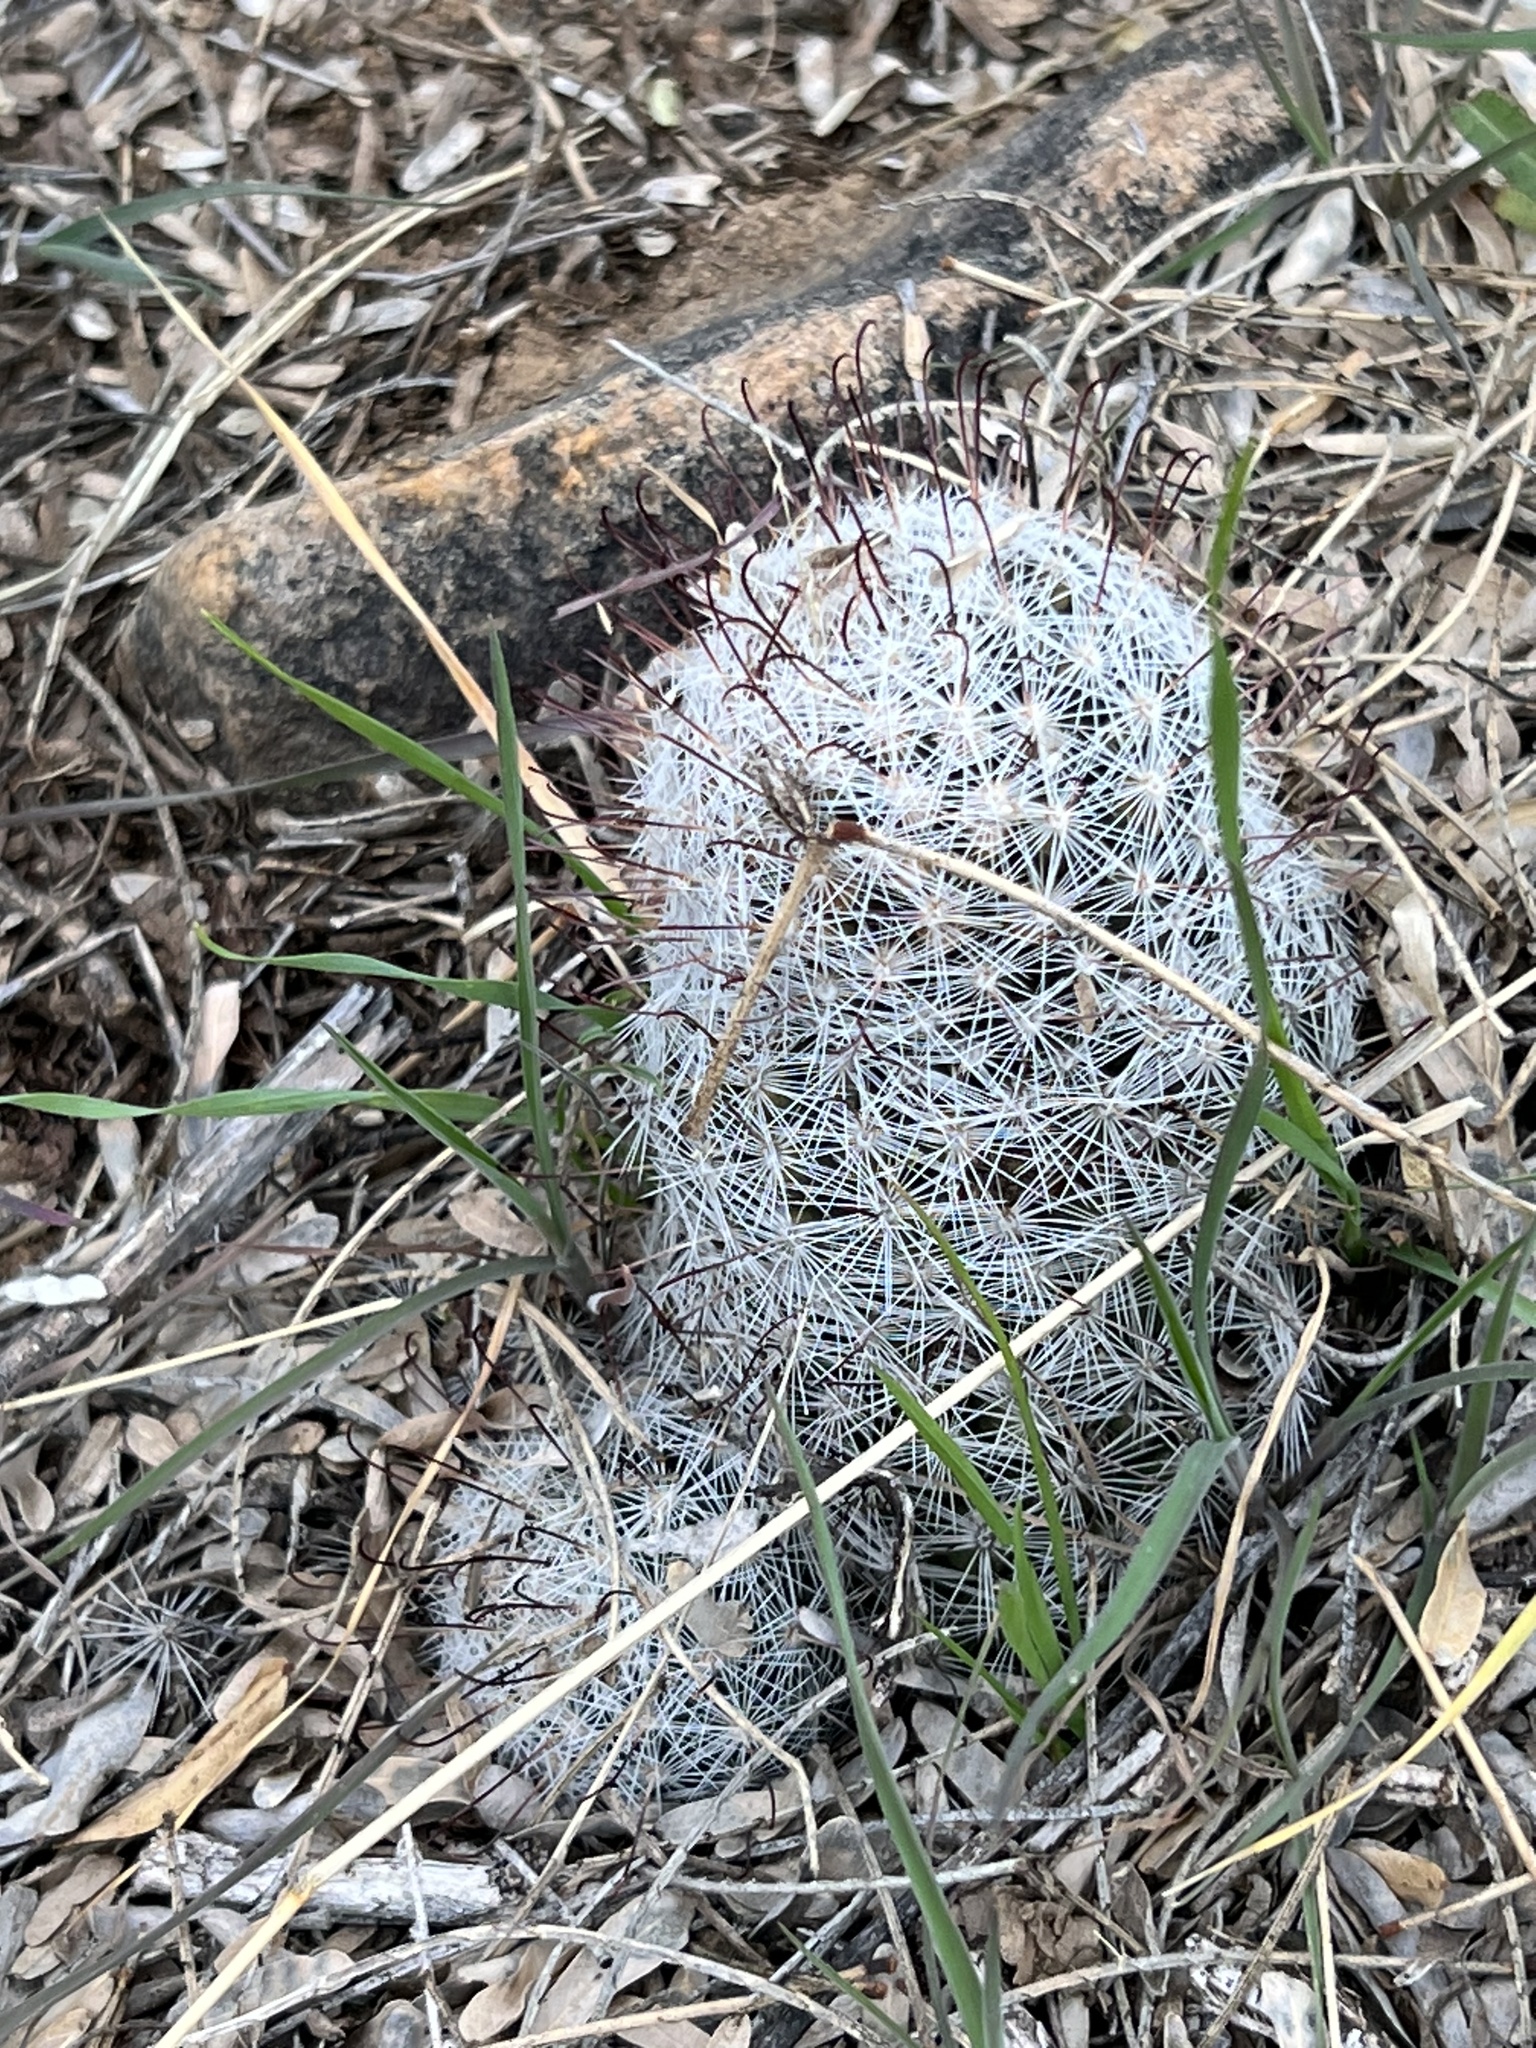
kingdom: Plantae
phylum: Tracheophyta
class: Magnoliopsida
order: Caryophyllales
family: Cactaceae
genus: Cochemiea
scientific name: Cochemiea grahamii
